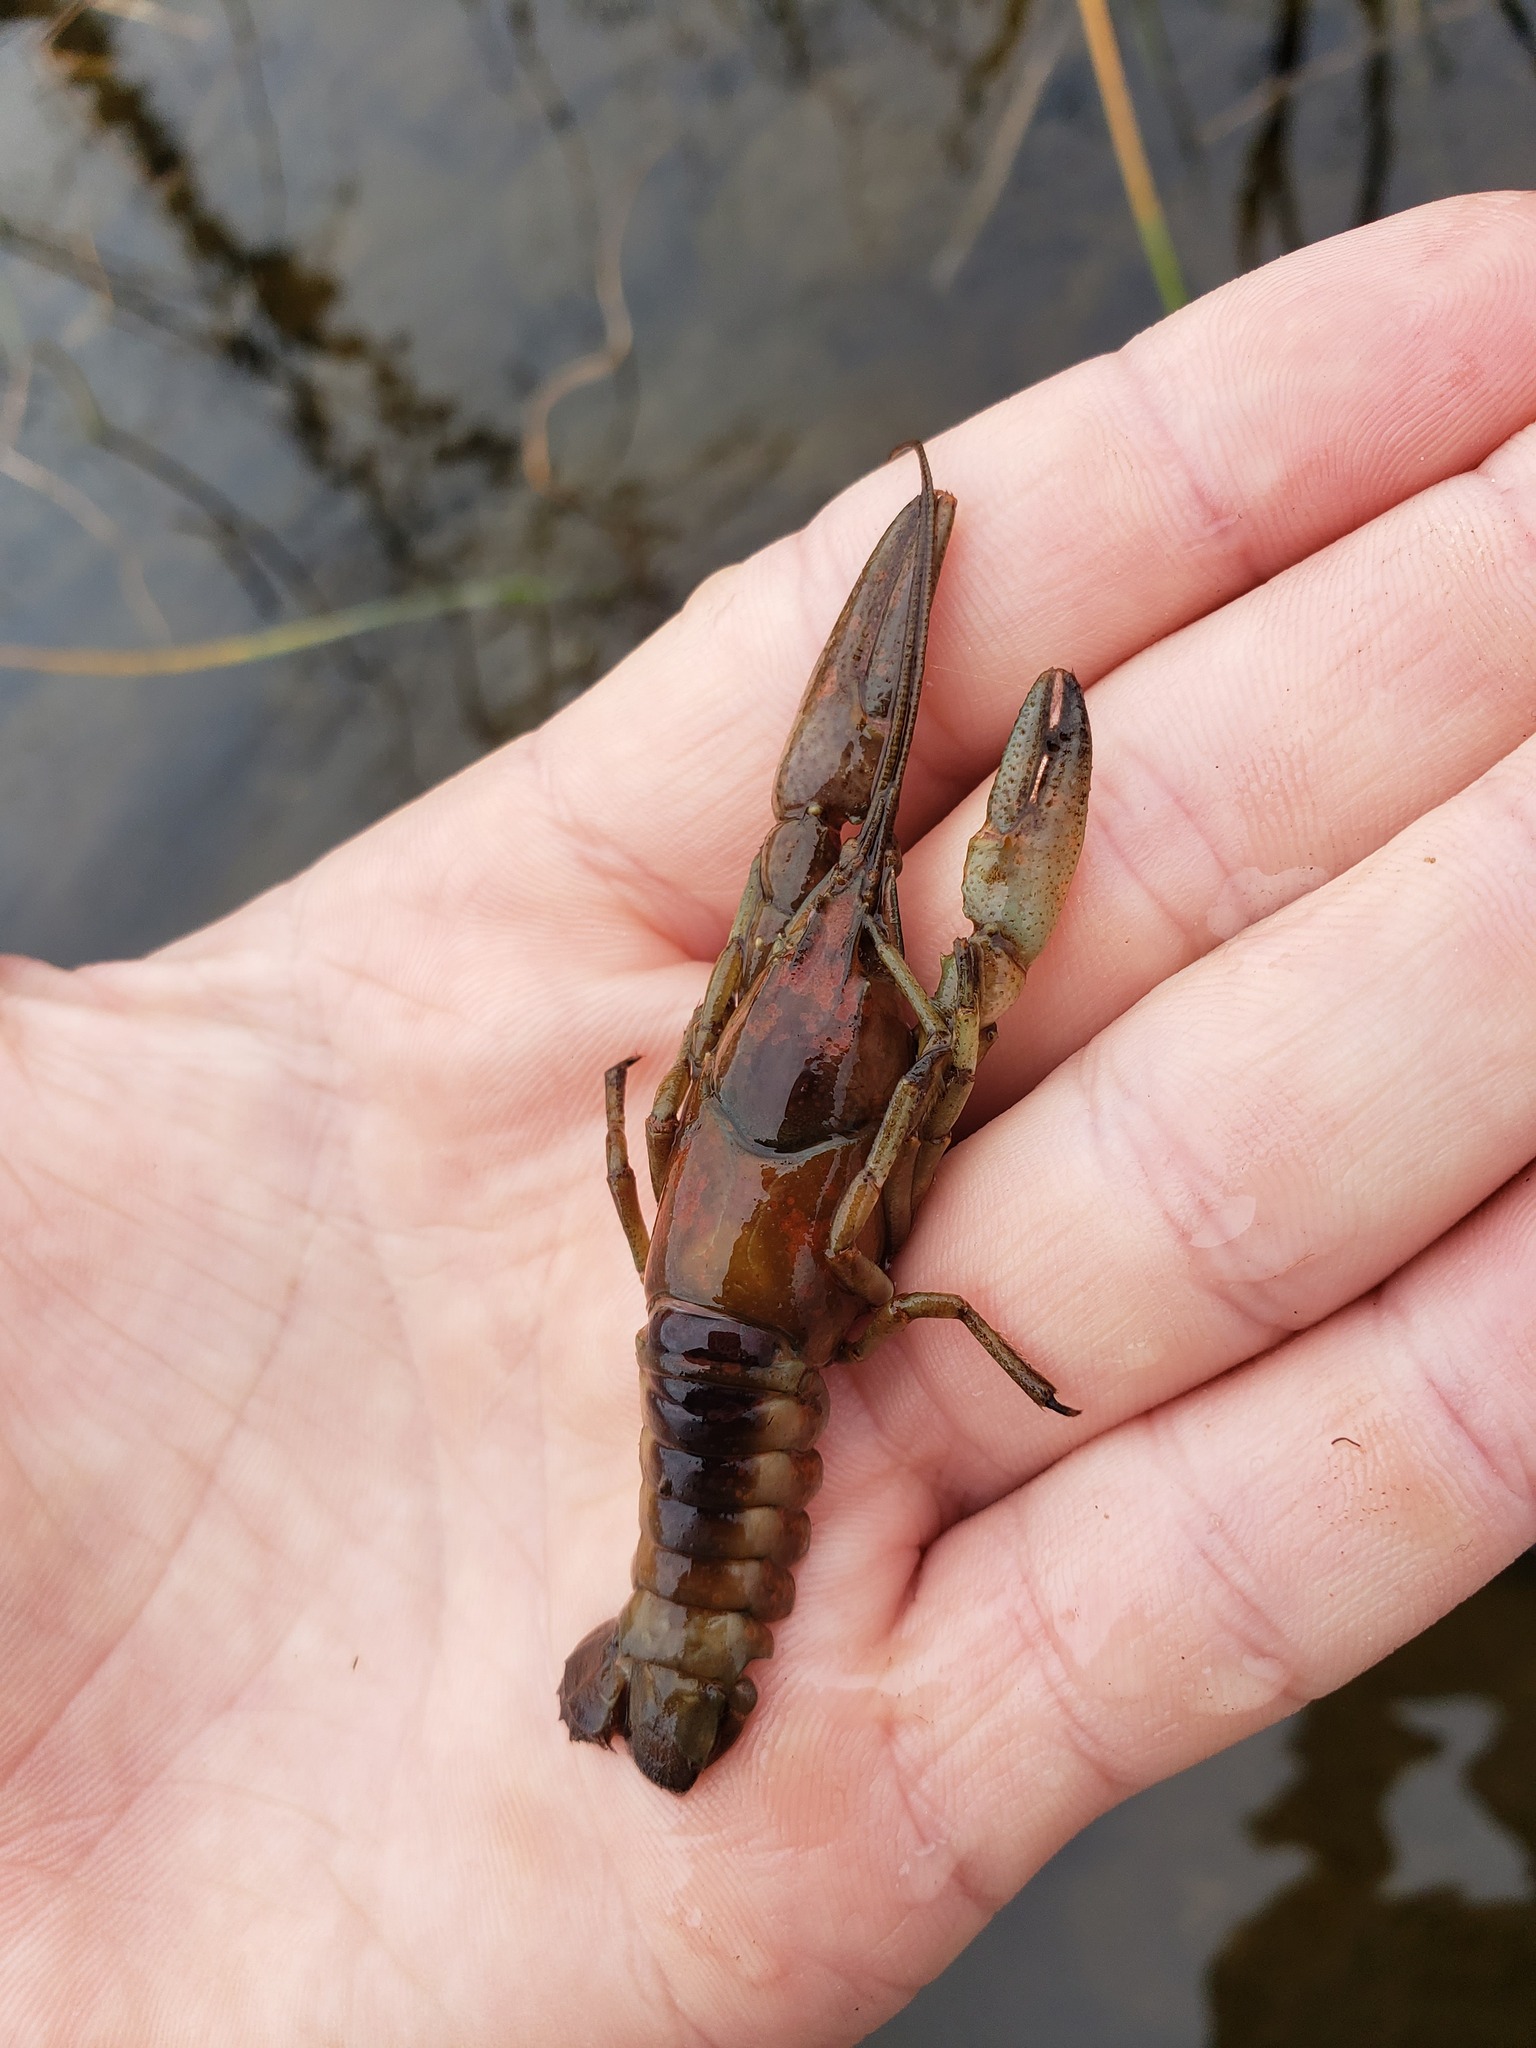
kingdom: Animalia
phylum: Arthropoda
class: Malacostraca
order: Decapoda
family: Cambaridae
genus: Faxonius
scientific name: Faxonius propinquus
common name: Northern clearwater crayfish
